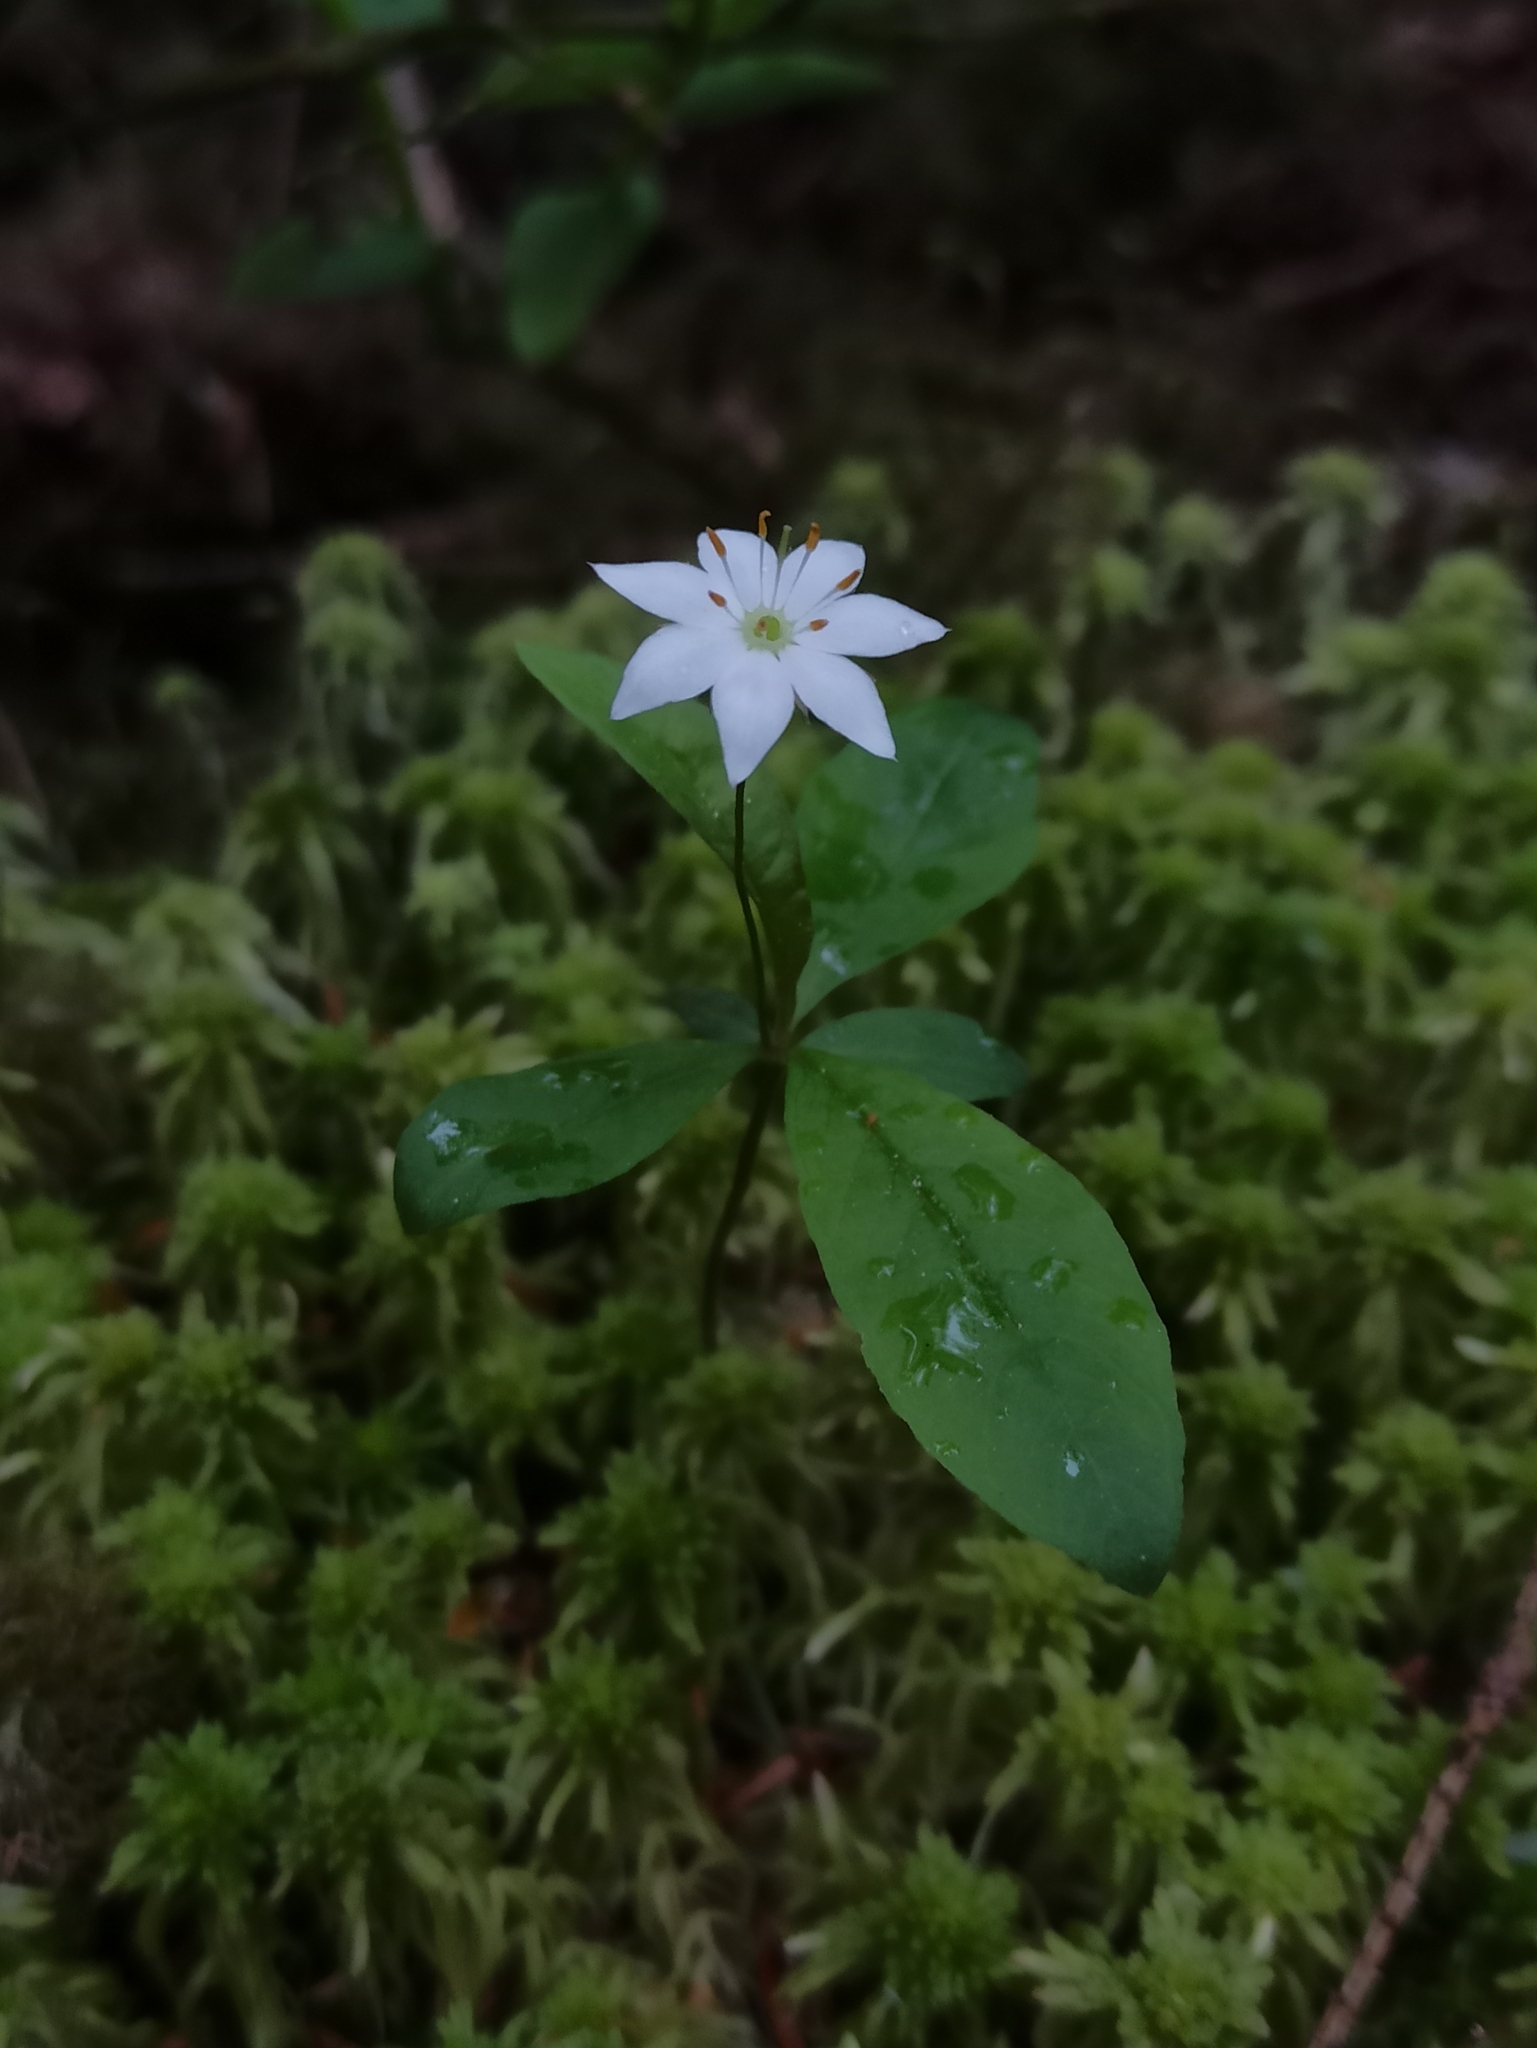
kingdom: Plantae
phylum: Tracheophyta
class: Magnoliopsida
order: Ericales
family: Primulaceae
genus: Lysimachia
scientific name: Lysimachia europaea
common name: Arctic starflower
